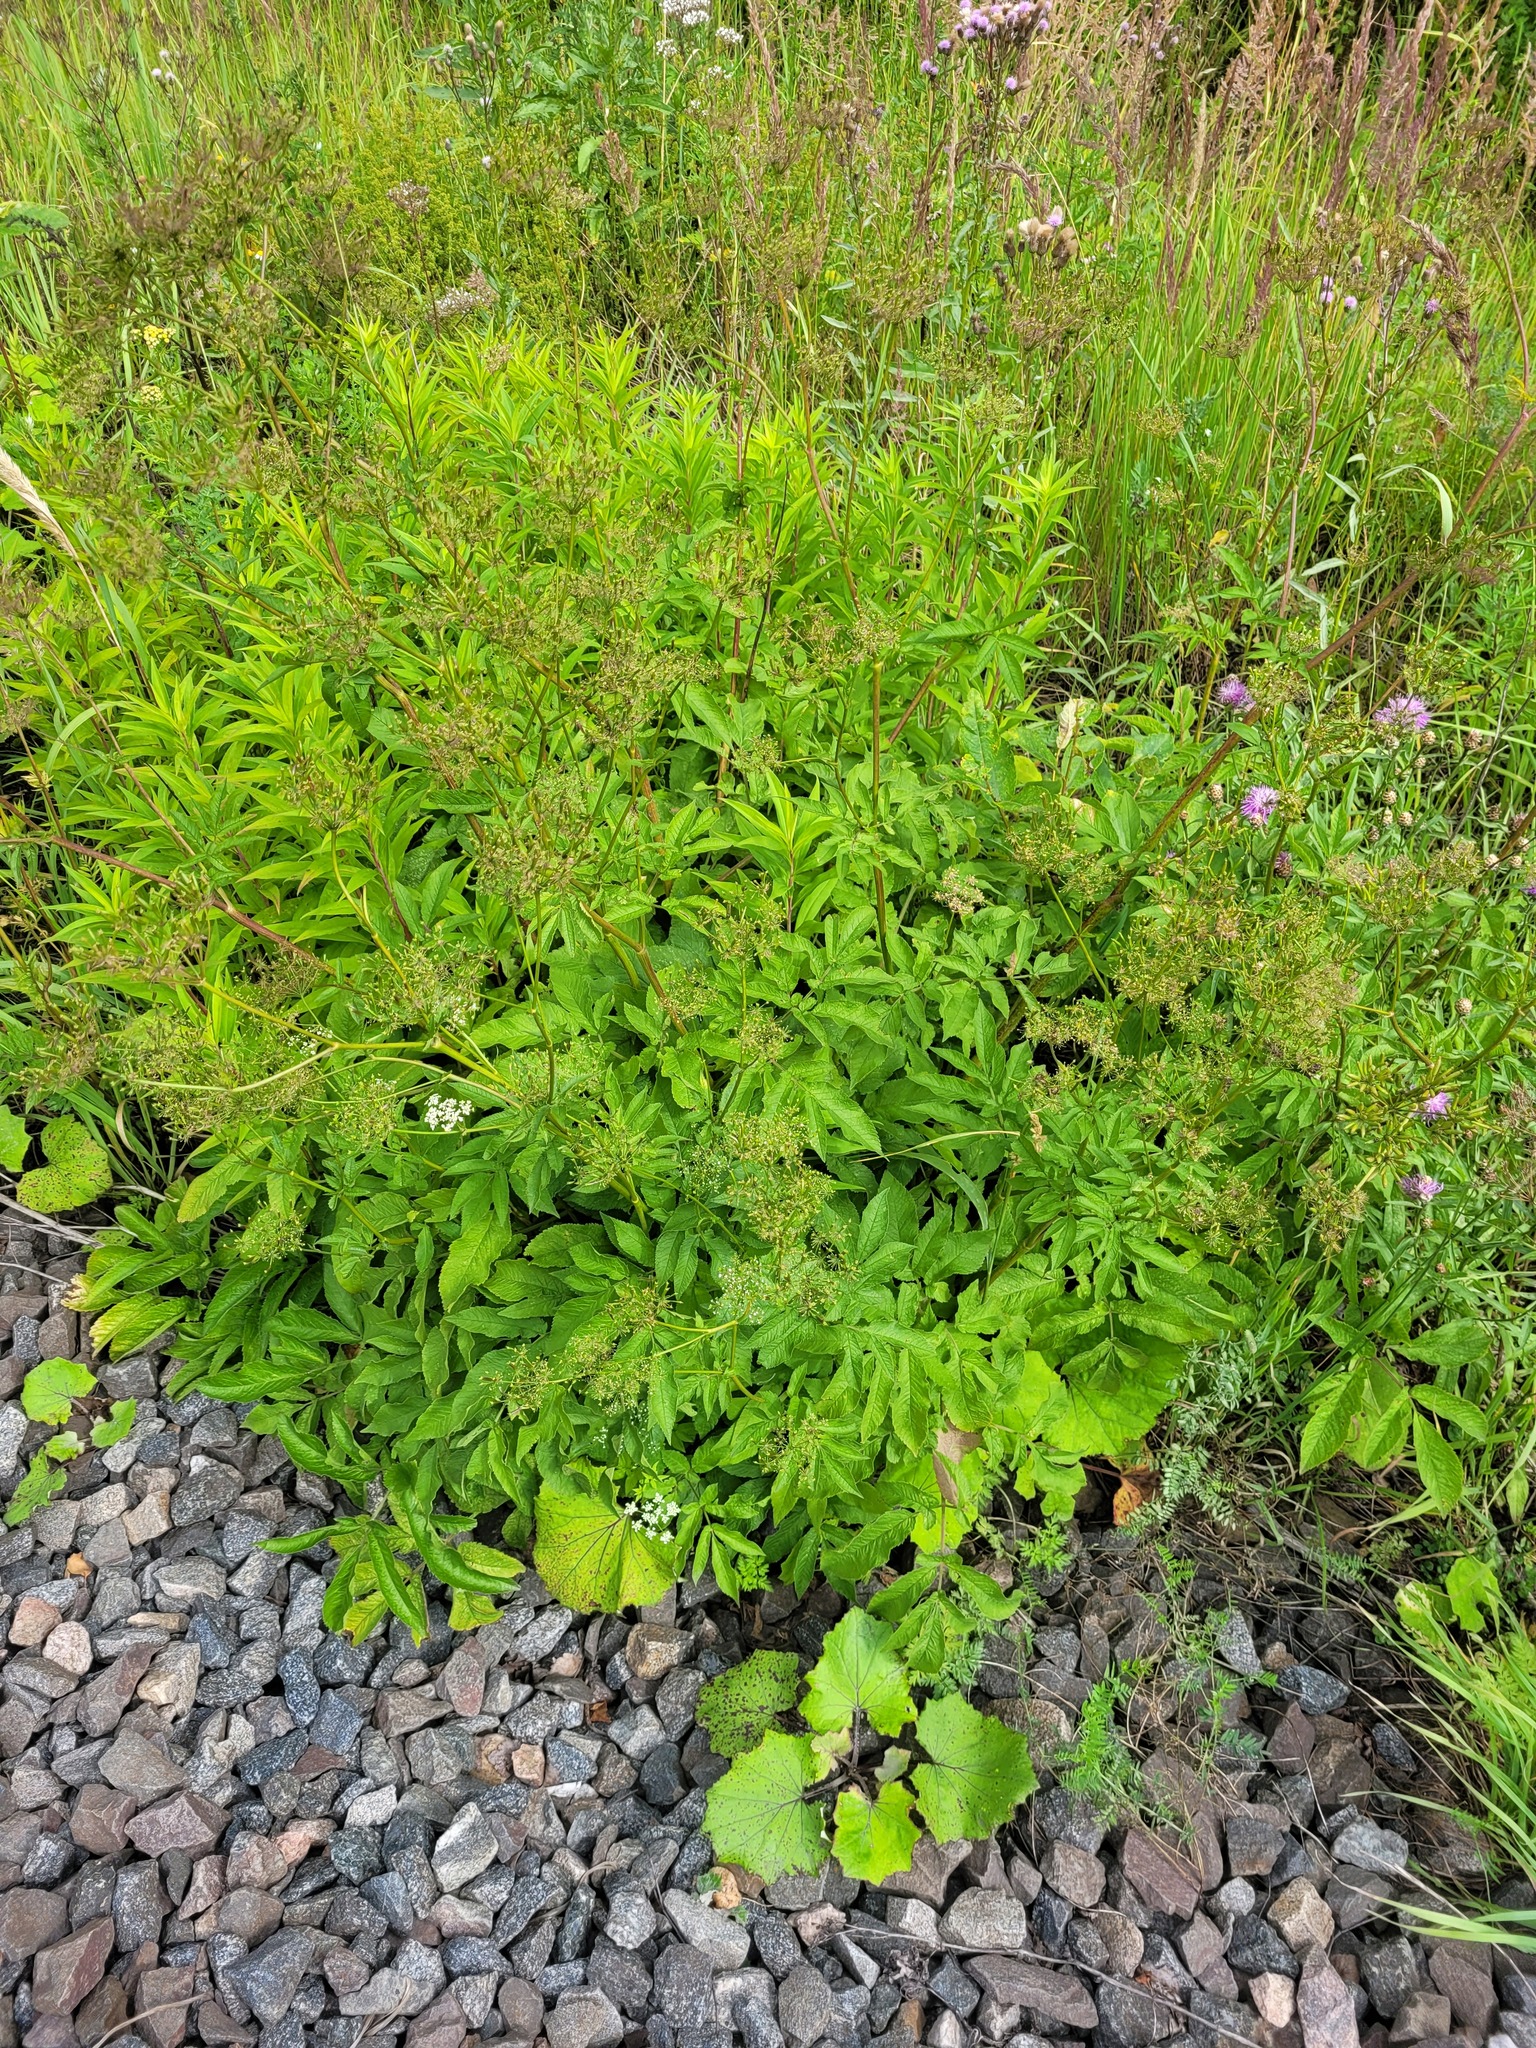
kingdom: Plantae
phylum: Tracheophyta
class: Magnoliopsida
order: Apiales
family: Apiaceae
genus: Chaerophyllum
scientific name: Chaerophyllum aromaticum
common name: Broadleaf chervil
